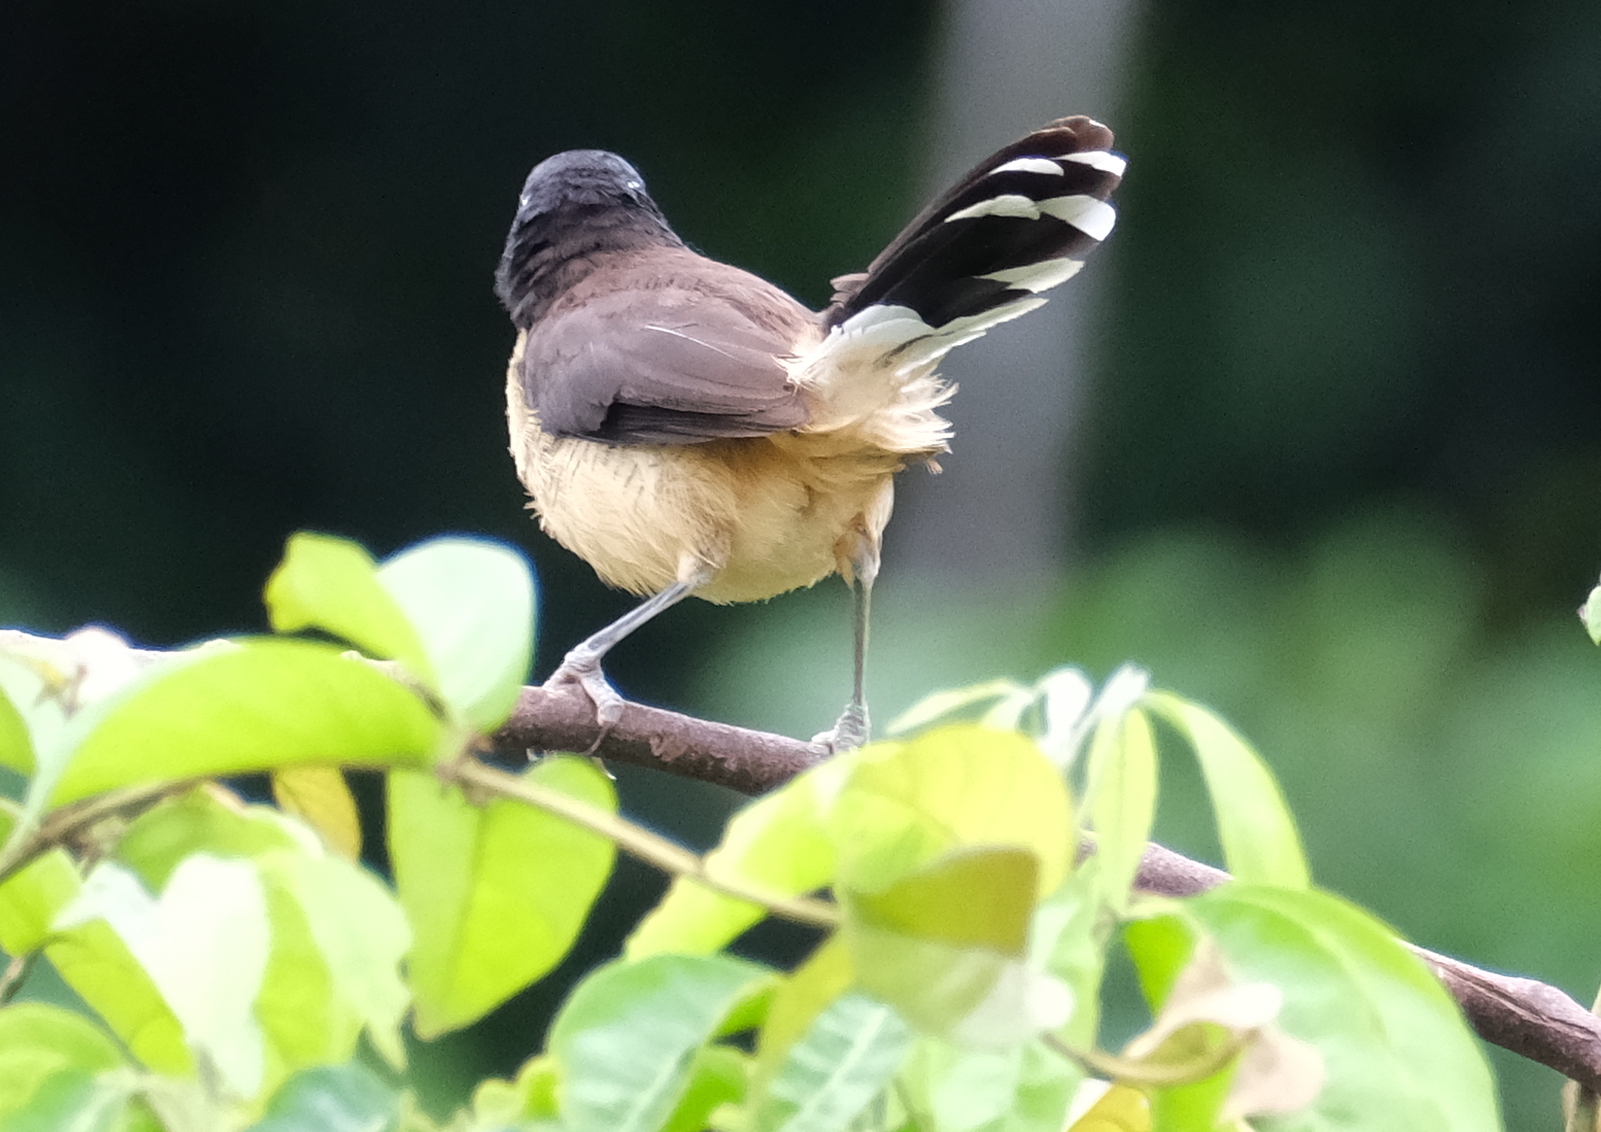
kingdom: Animalia
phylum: Chordata
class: Aves
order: Passeriformes
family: Donacobiidae
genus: Donacobius
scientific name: Donacobius atricapilla
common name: Black-capped donacobius
